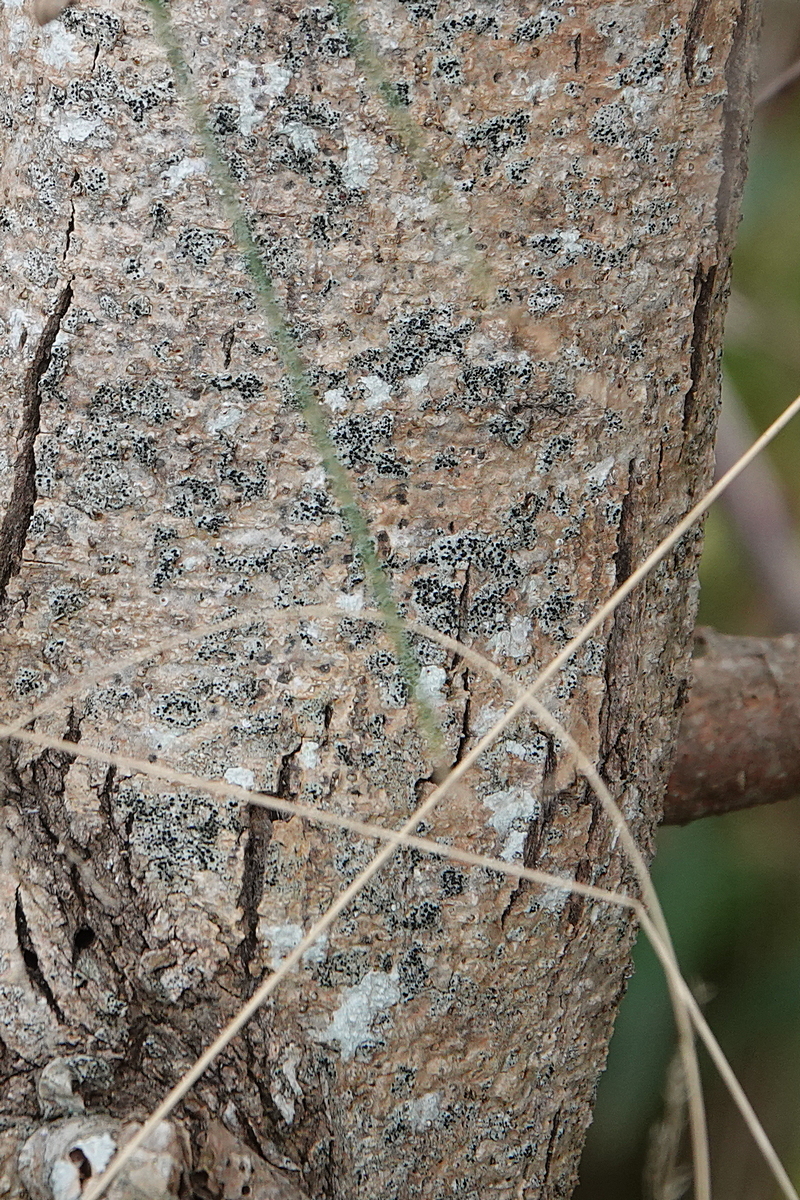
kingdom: Plantae
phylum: Tracheophyta
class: Magnoliopsida
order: Fabales
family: Fabaceae
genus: Acacia
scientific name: Acacia subporosa
